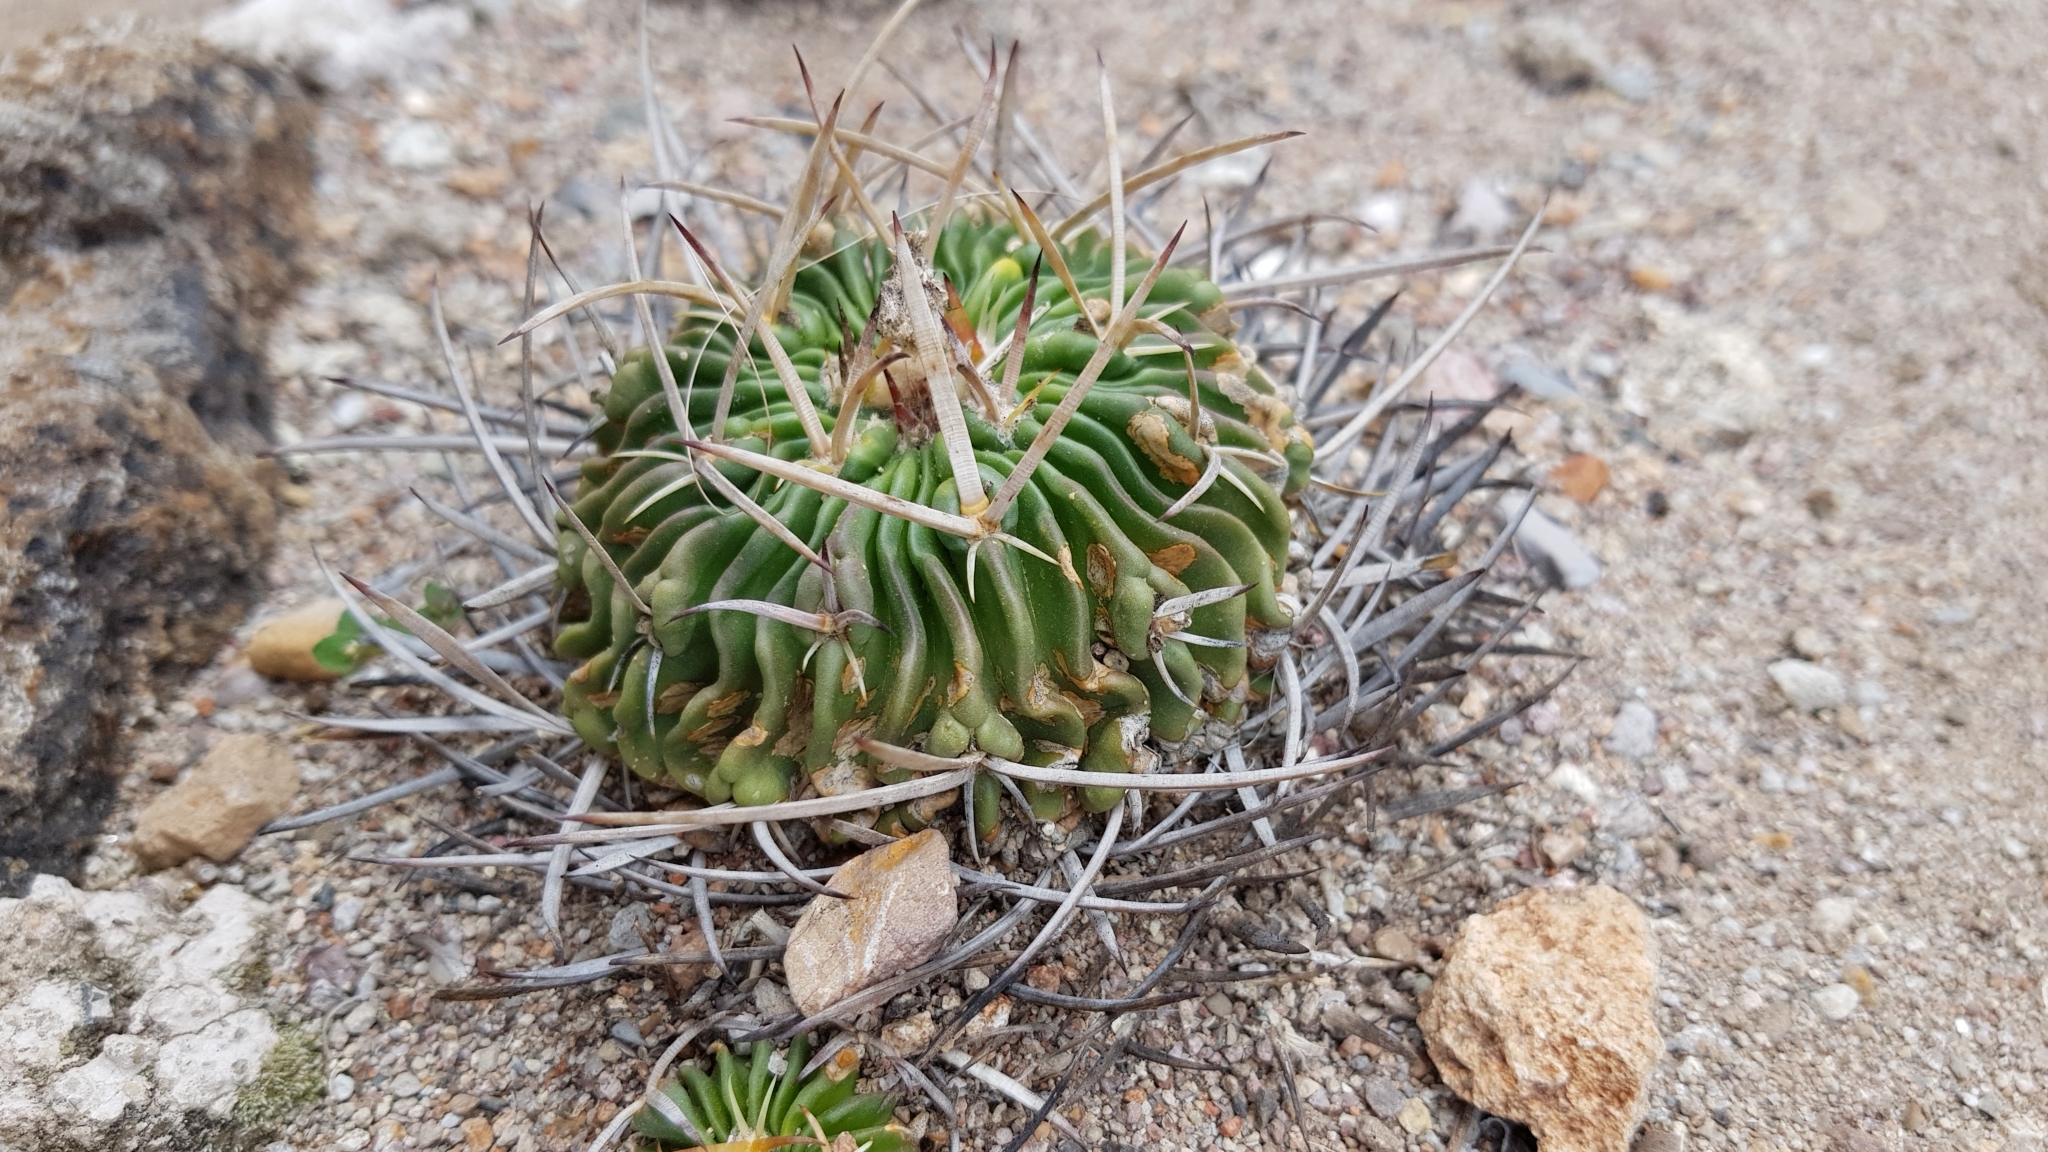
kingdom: Plantae
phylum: Tracheophyta
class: Magnoliopsida
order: Caryophyllales
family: Cactaceae
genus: Stenocactus
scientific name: Stenocactus obvallatus
